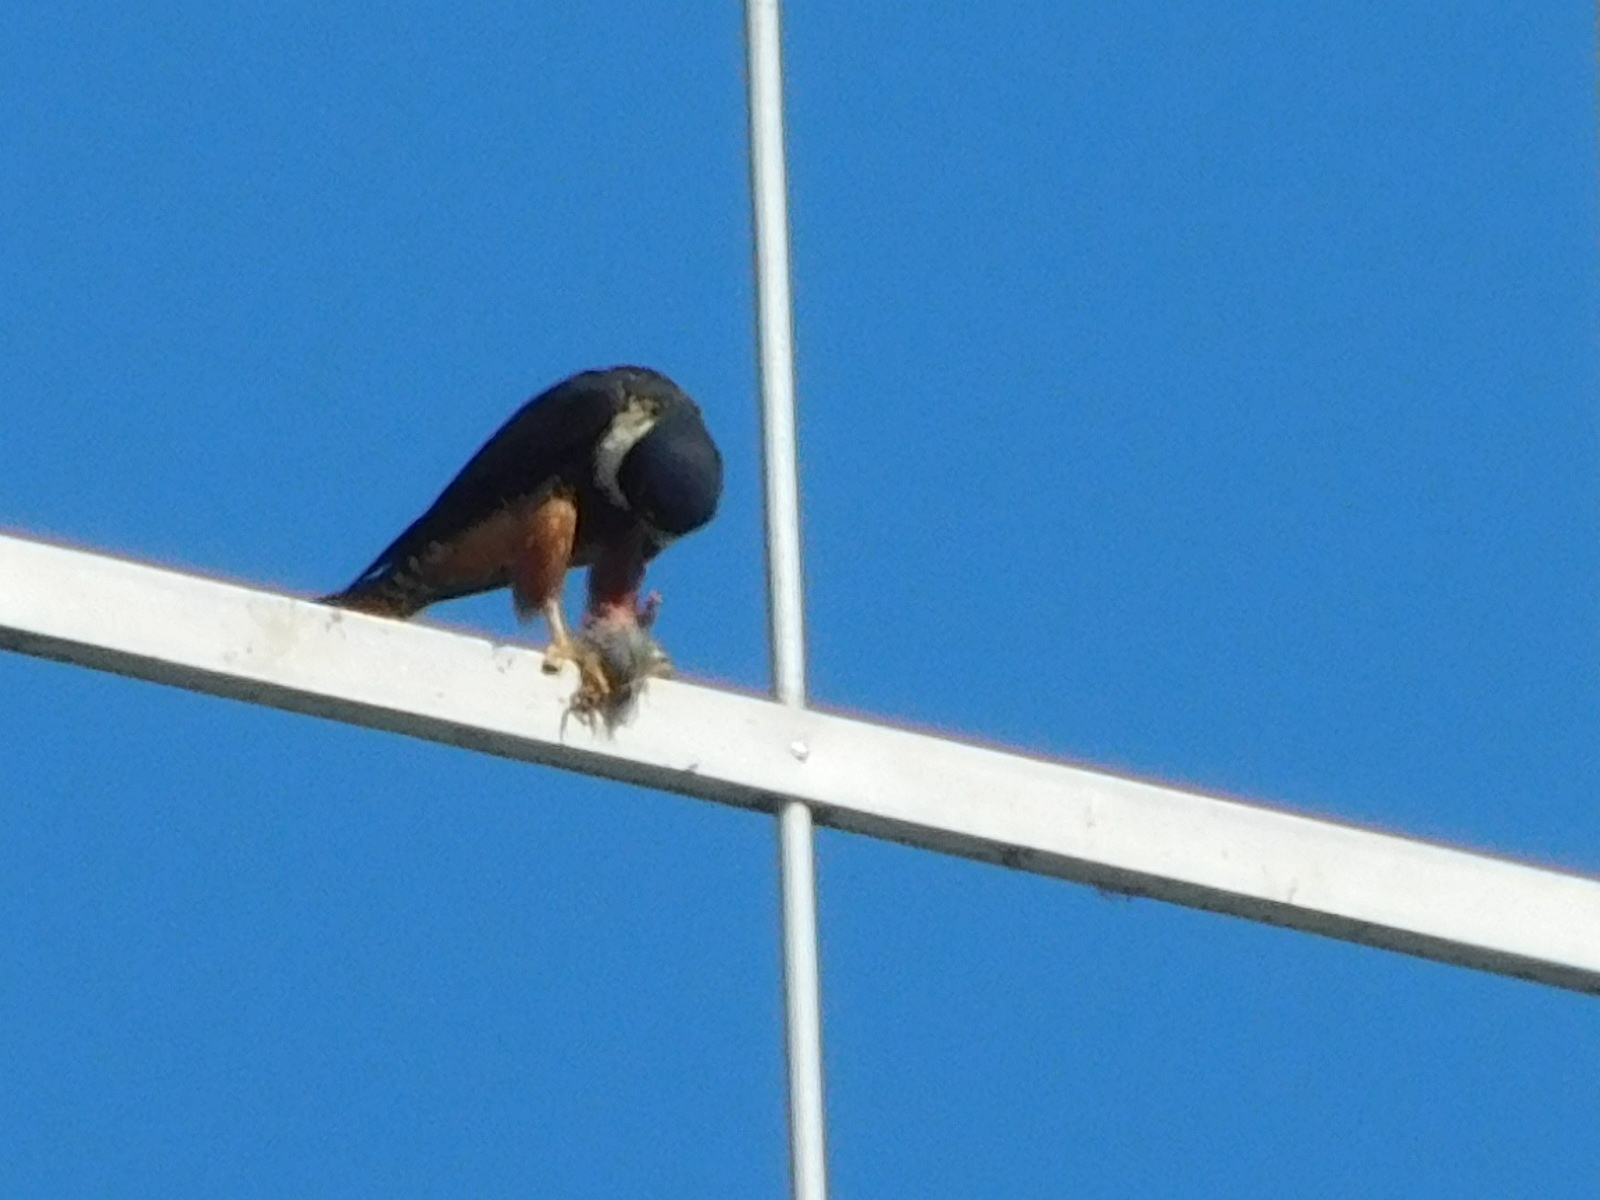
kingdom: Animalia
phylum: Chordata
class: Aves
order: Falconiformes
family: Falconidae
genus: Falco
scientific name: Falco rufigularis
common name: Bat falcon
